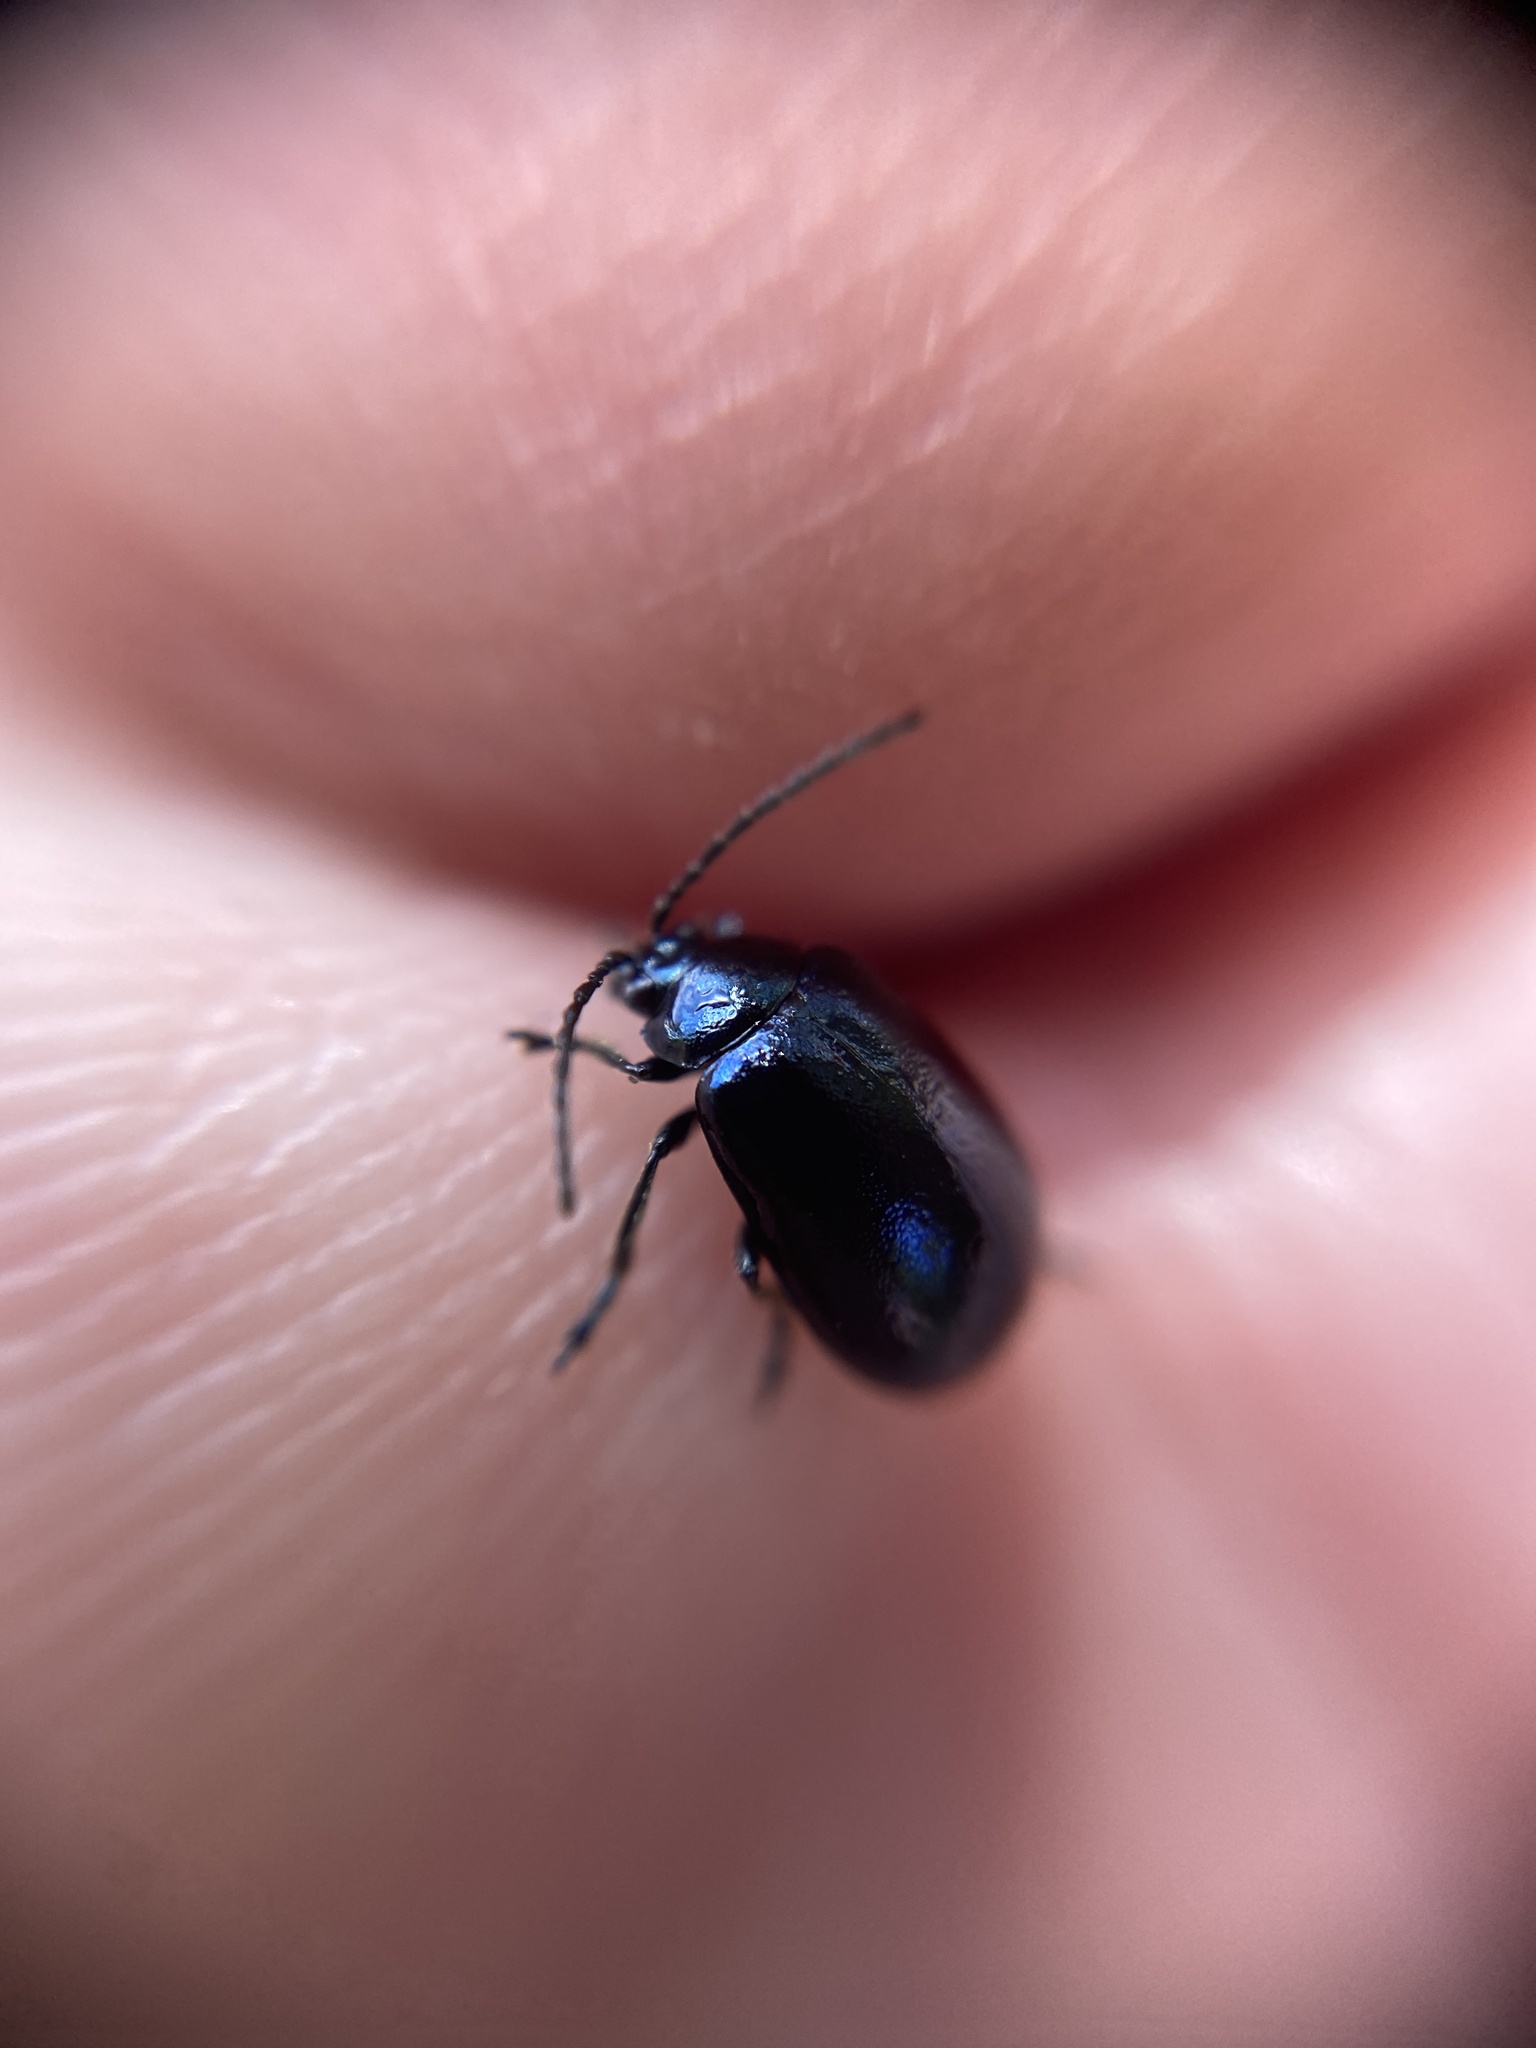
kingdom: Animalia
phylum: Arthropoda
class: Insecta
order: Coleoptera
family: Chrysomelidae
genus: Agelastica
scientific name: Agelastica alni
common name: Alder leaf beetle
